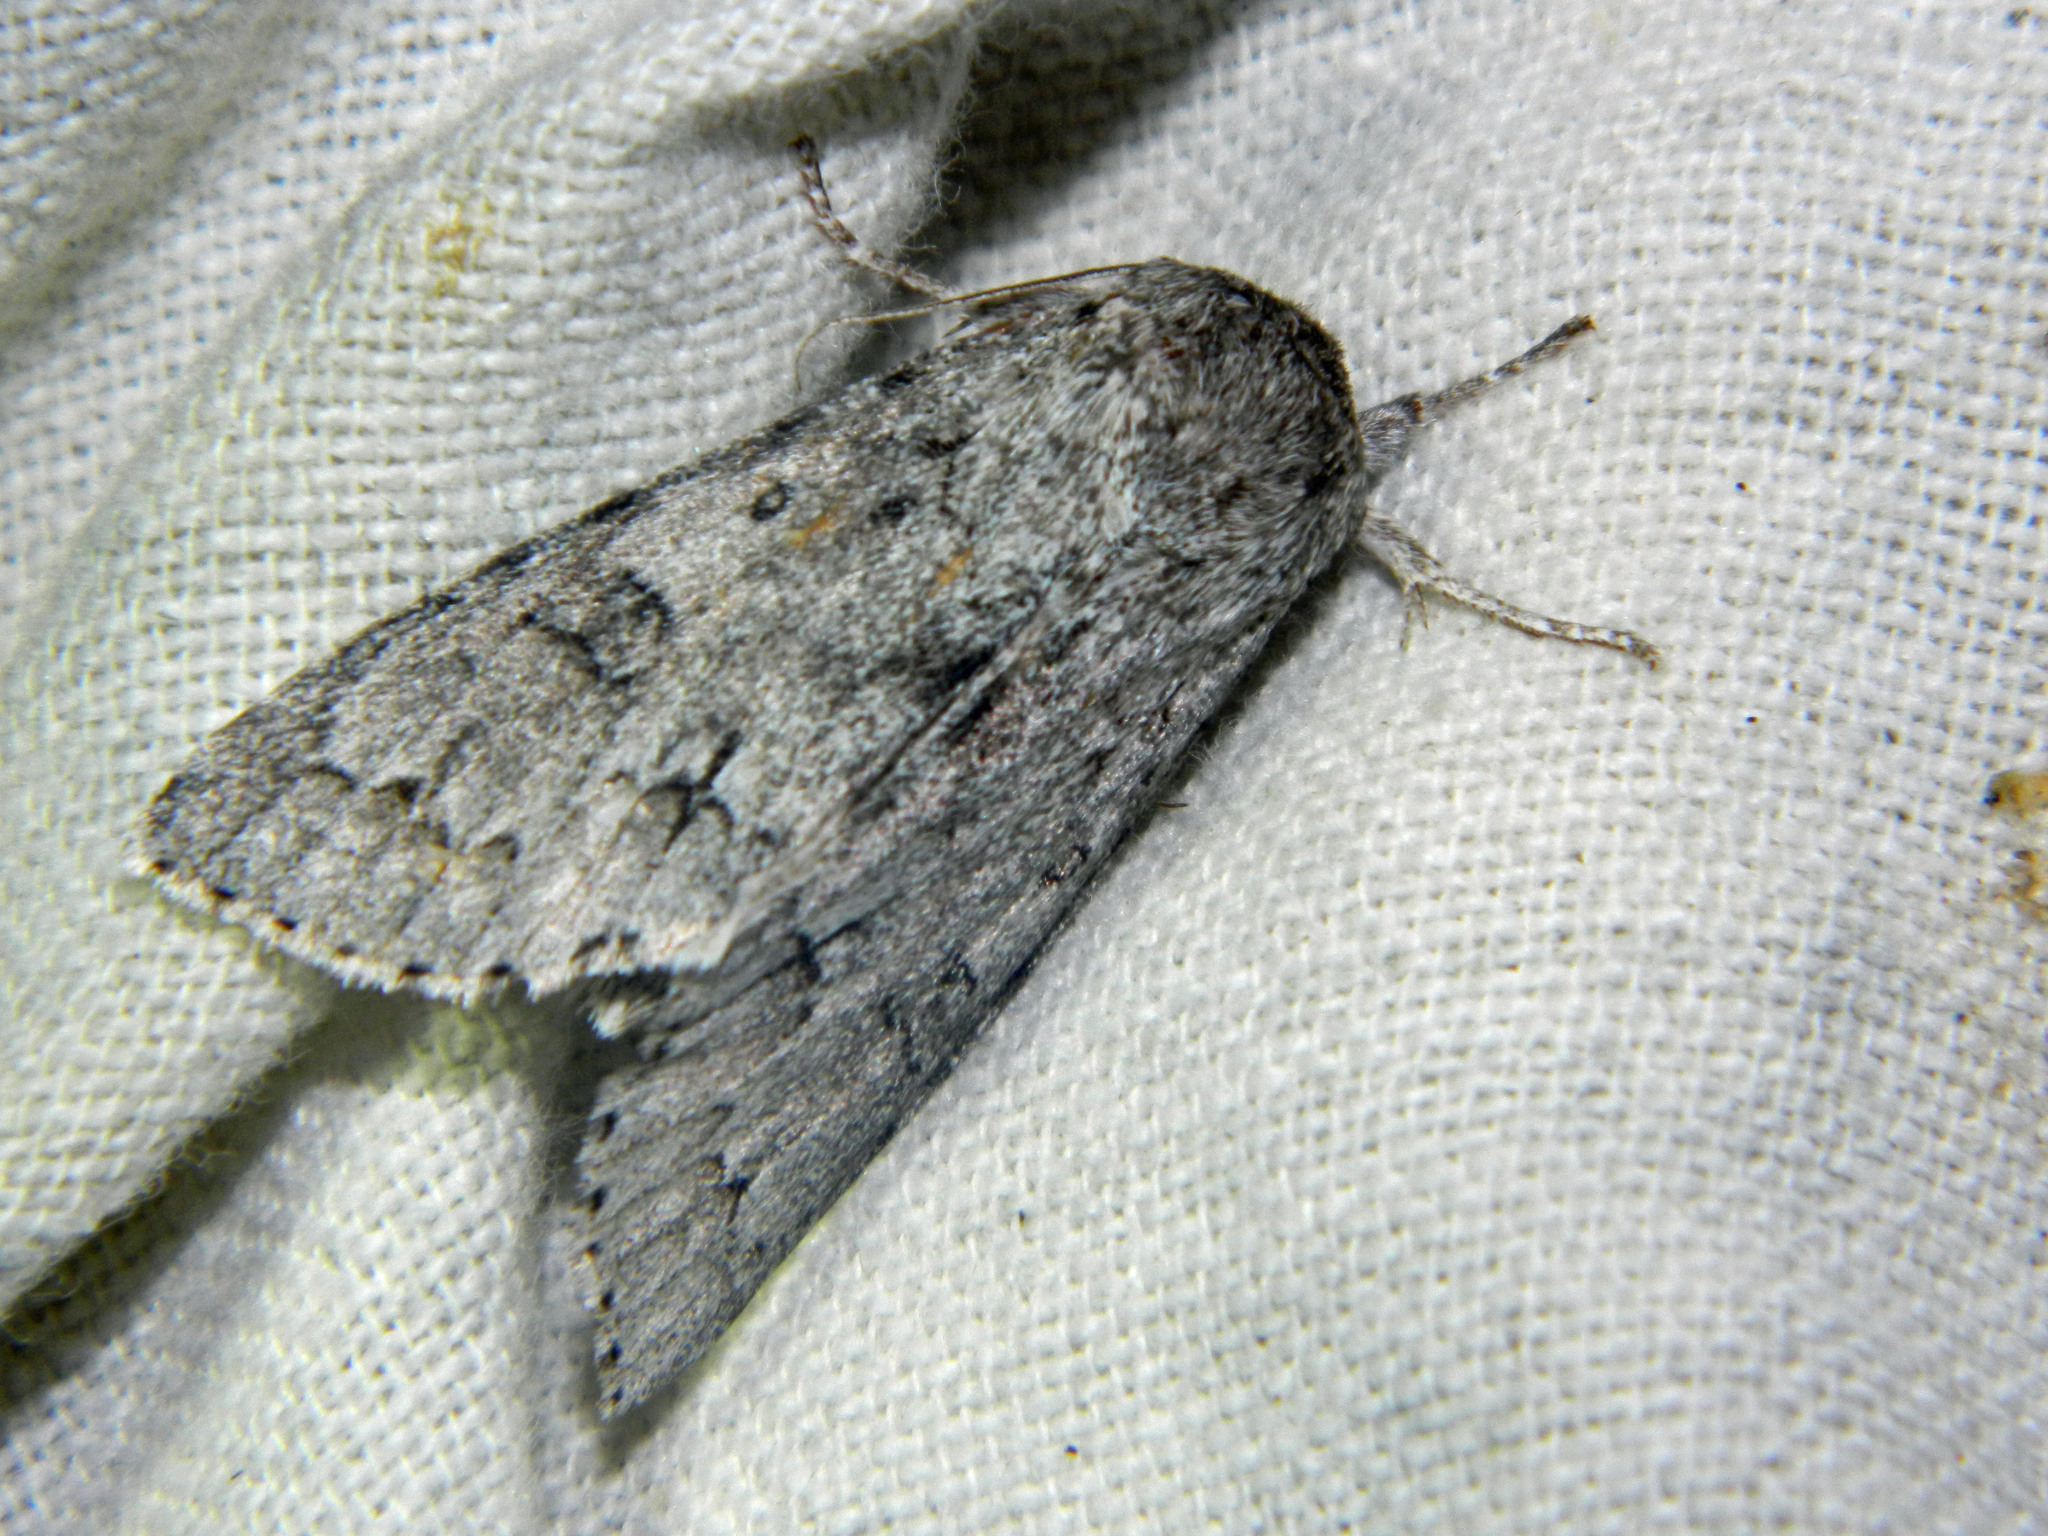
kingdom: Animalia
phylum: Arthropoda
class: Insecta
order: Lepidoptera
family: Noctuidae
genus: Acronicta
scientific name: Acronicta insita
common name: Large gray dagger
